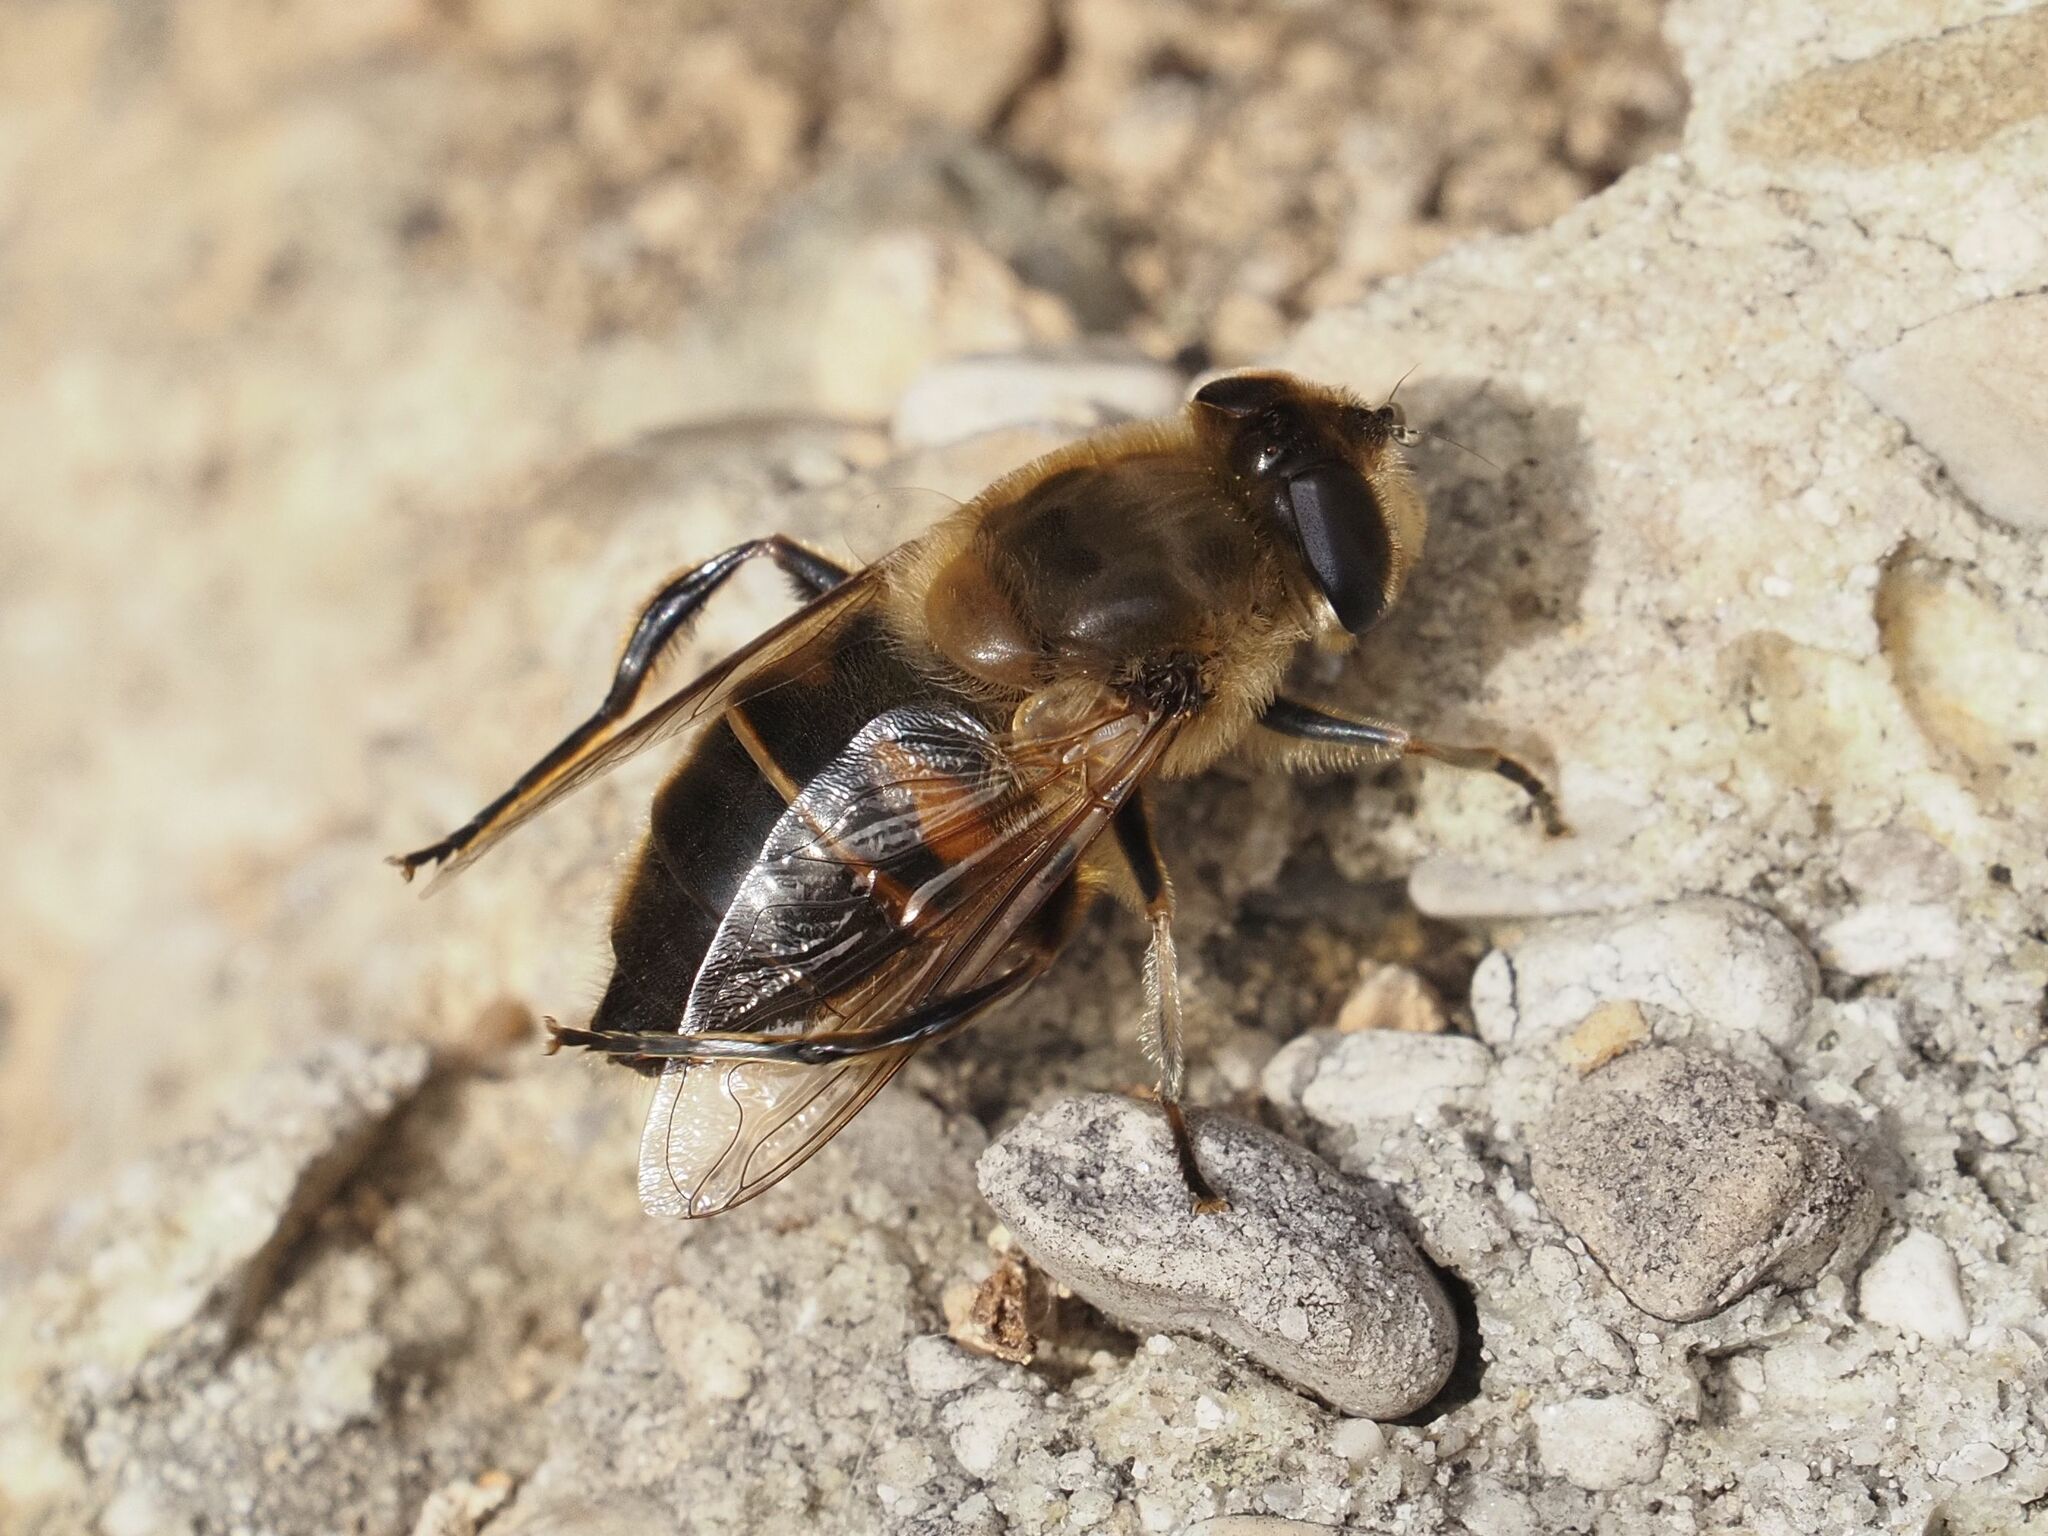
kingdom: Animalia
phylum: Arthropoda
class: Insecta
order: Diptera
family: Syrphidae
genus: Eristalis
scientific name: Eristalis tenax
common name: Drone fly
